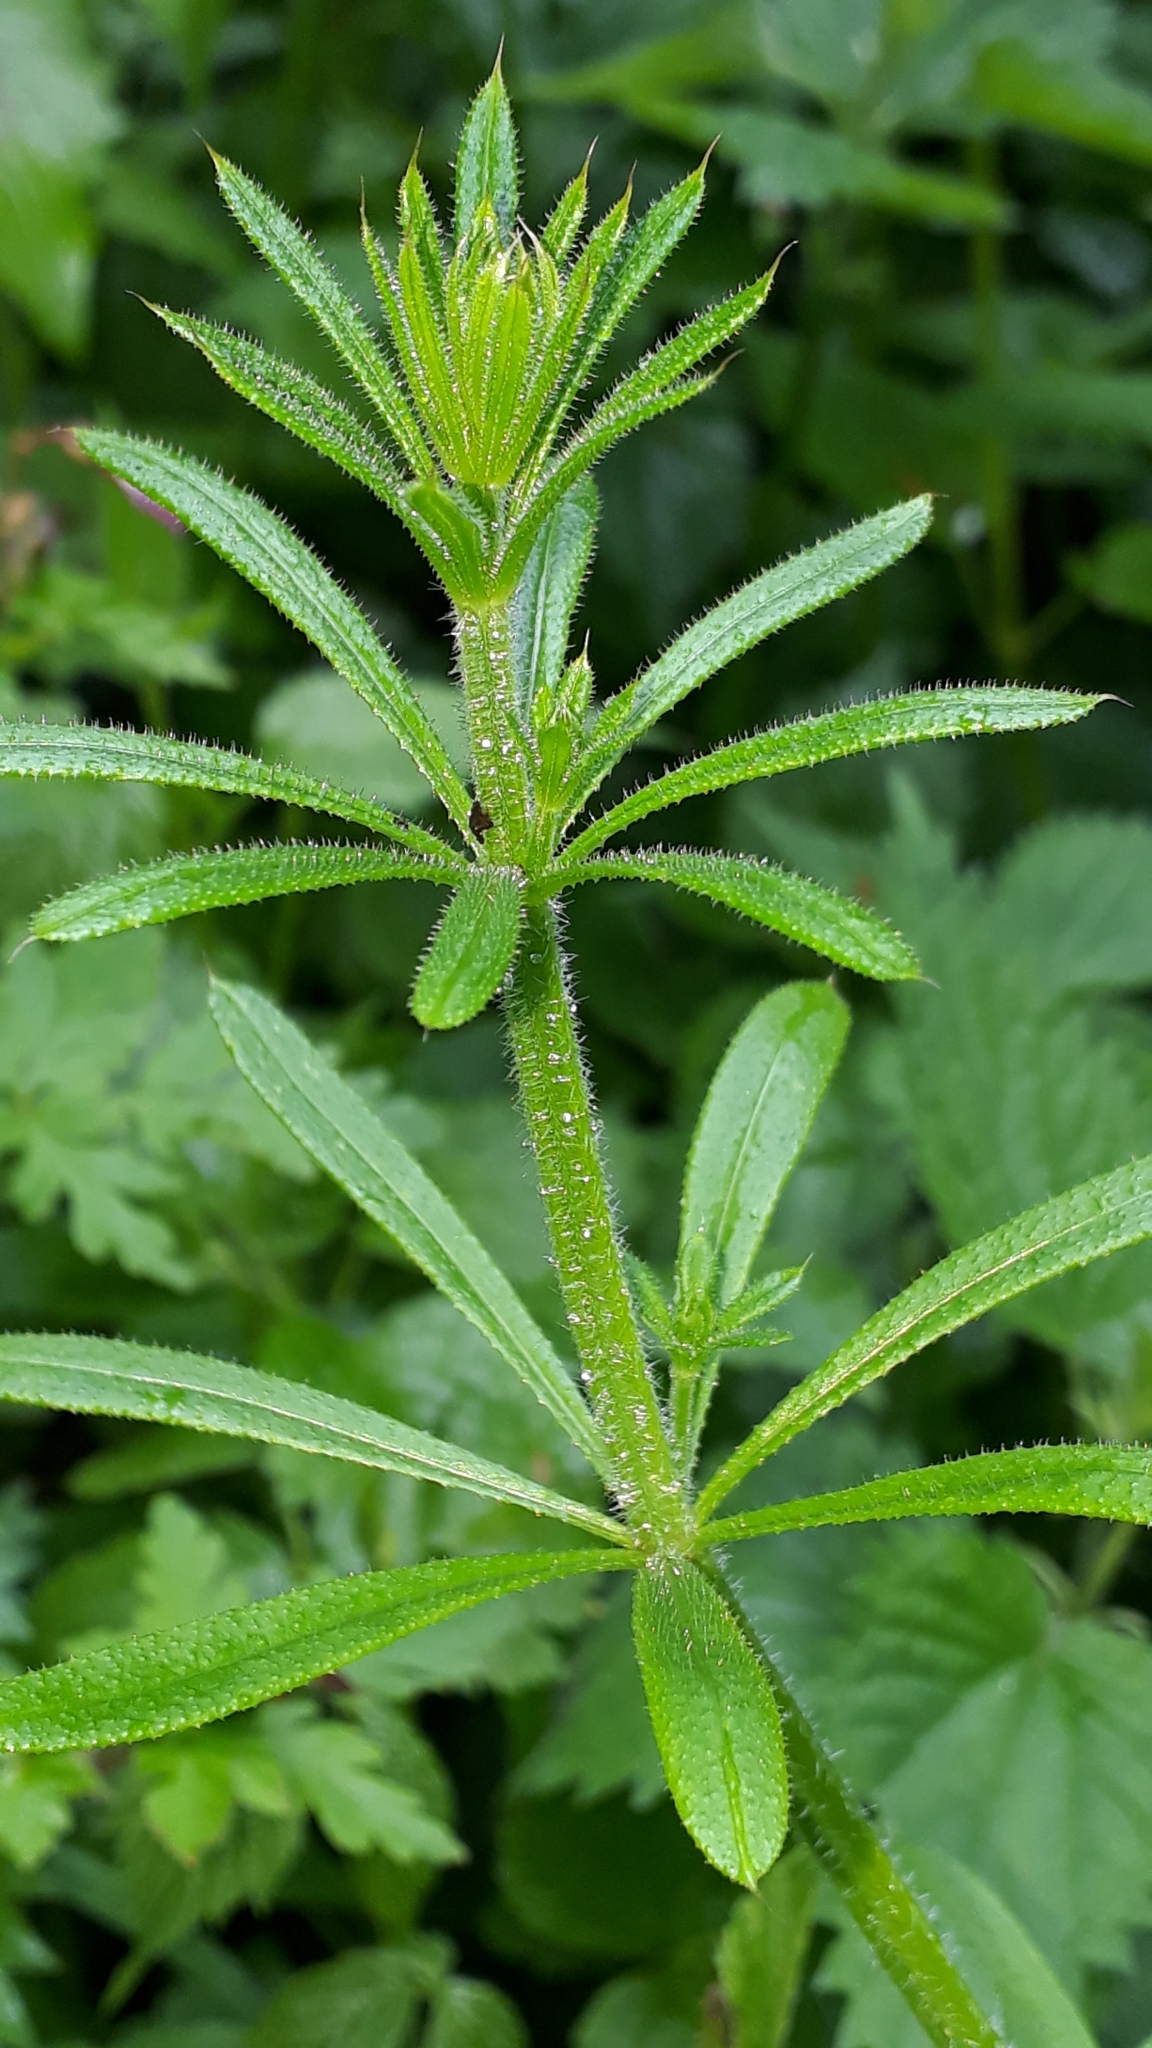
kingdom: Plantae
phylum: Tracheophyta
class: Magnoliopsida
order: Gentianales
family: Rubiaceae
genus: Galium
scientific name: Galium aparine
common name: Cleavers
